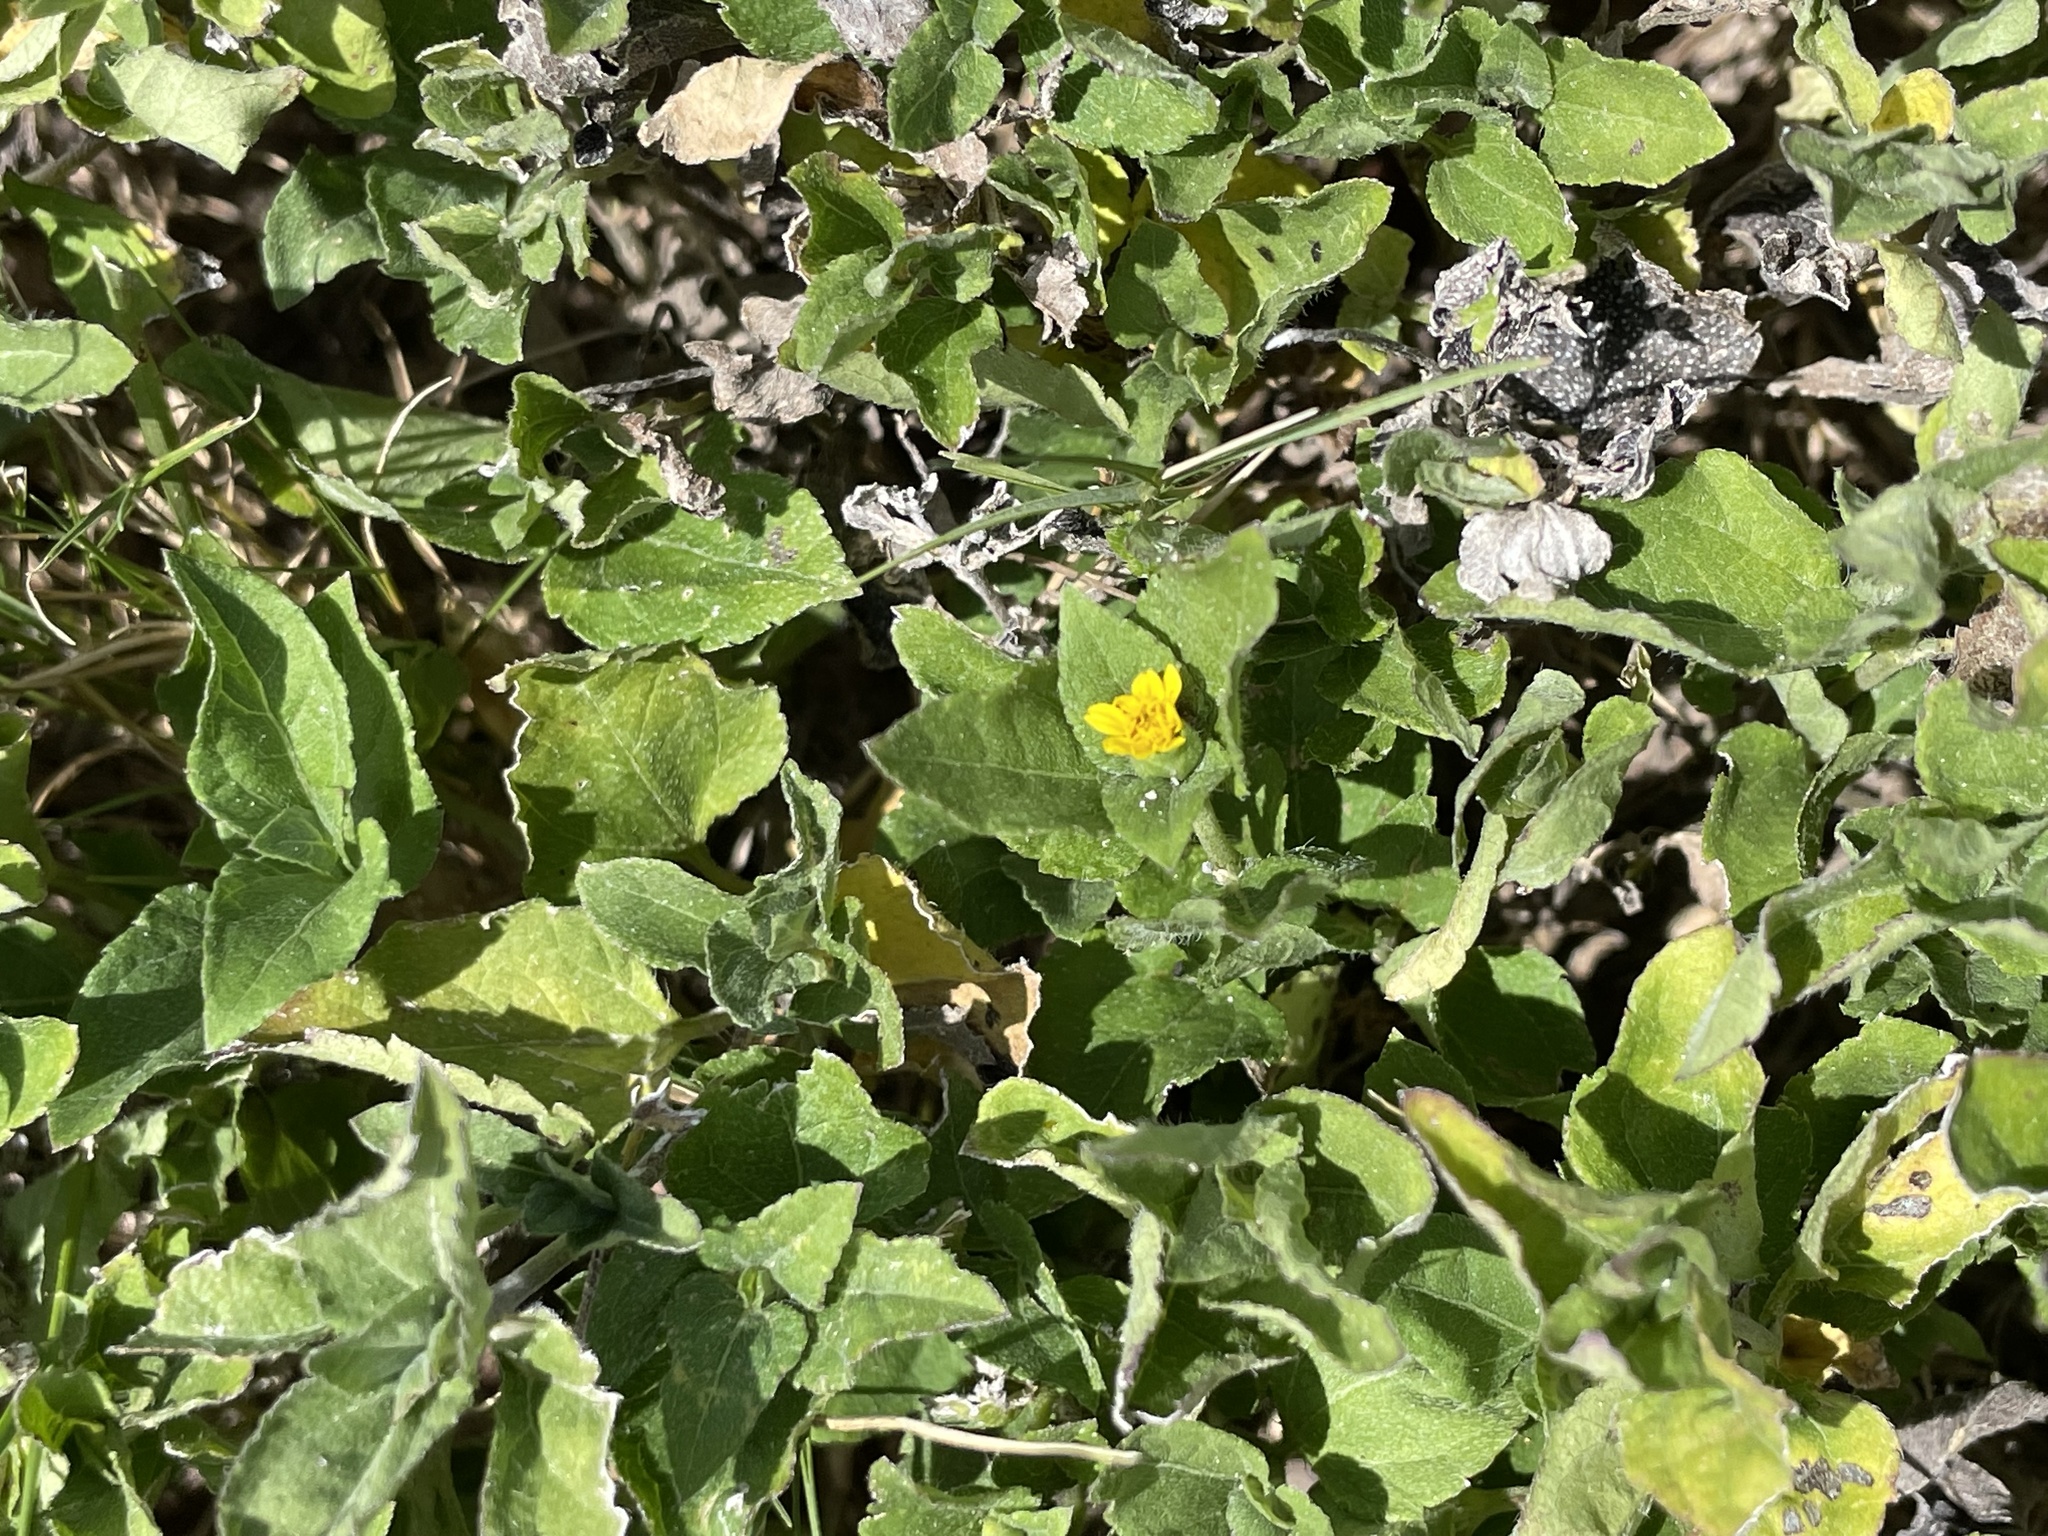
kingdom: Plantae
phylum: Tracheophyta
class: Magnoliopsida
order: Asterales
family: Asteraceae
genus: Calyptocarpus
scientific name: Calyptocarpus vialis
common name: Straggler daisy
